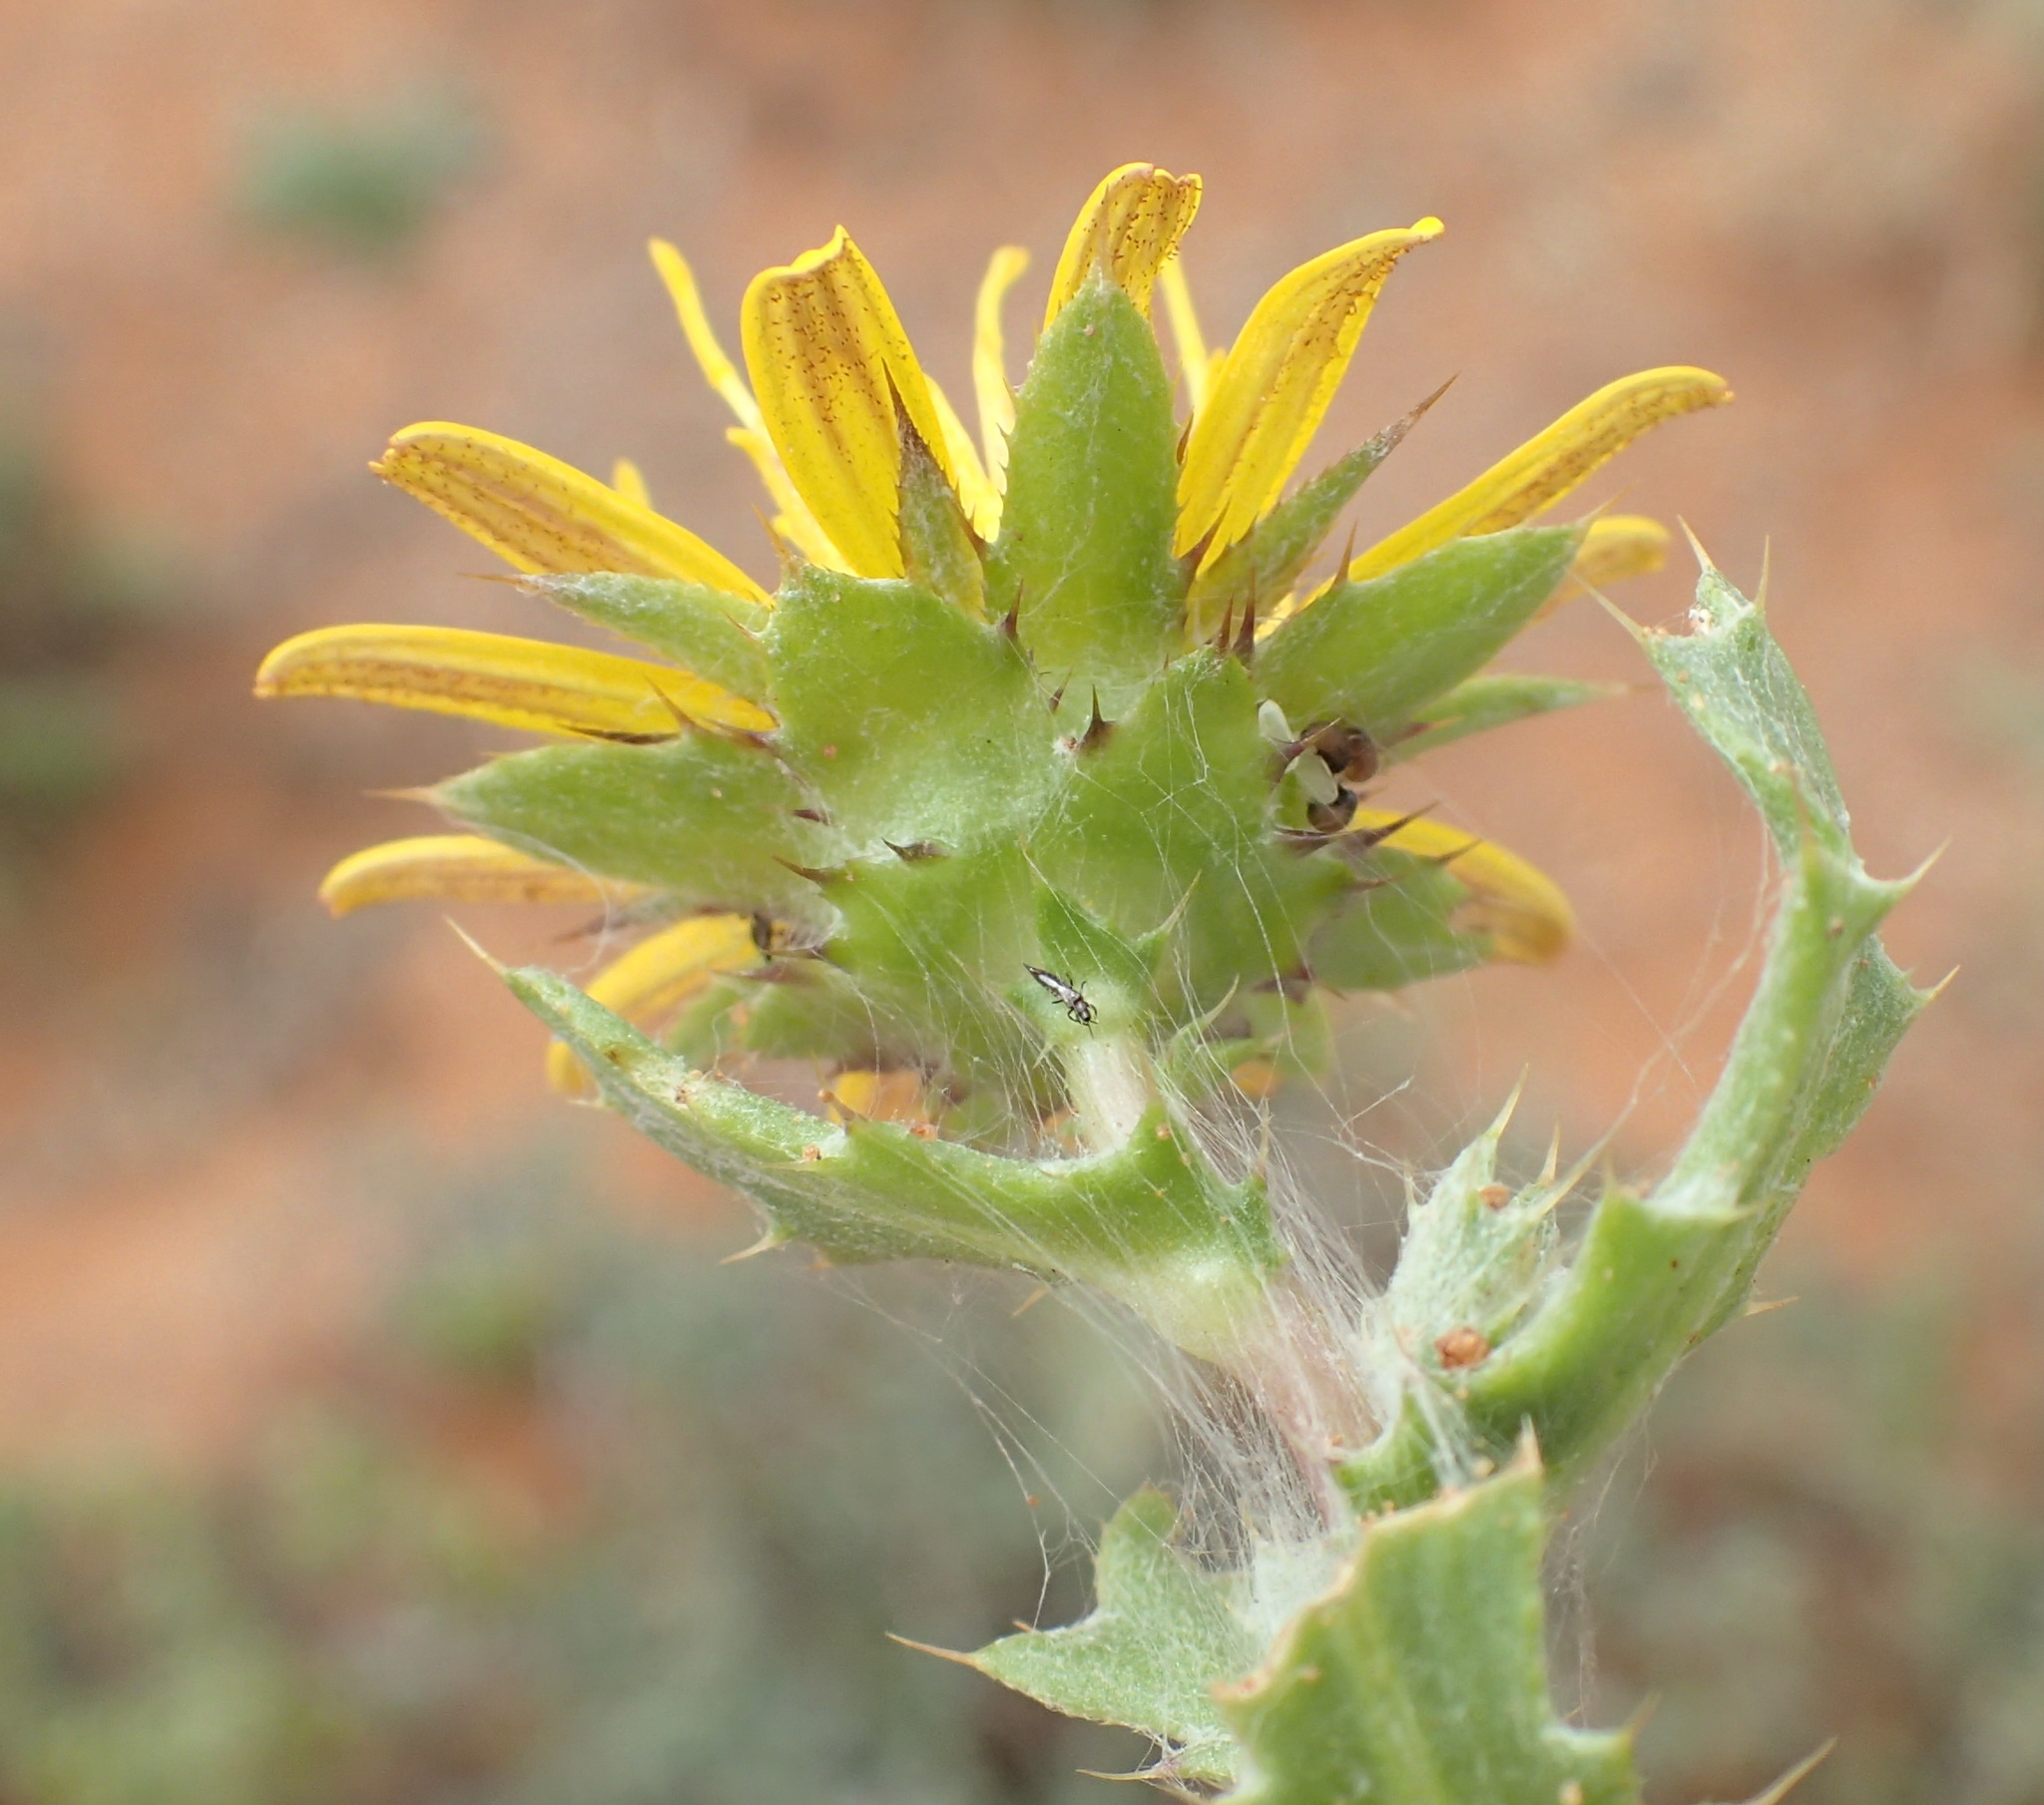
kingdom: Plantae
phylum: Tracheophyta
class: Magnoliopsida
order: Asterales
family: Asteraceae
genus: Cuspidia
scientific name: Cuspidia cernua
